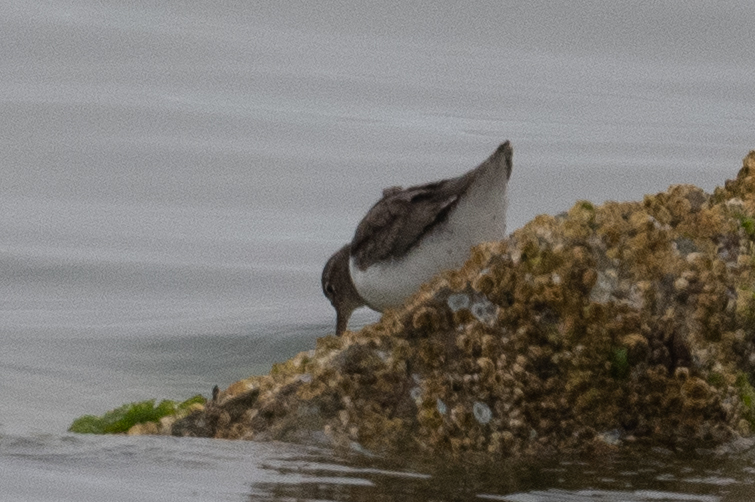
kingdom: Animalia
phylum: Chordata
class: Aves
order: Charadriiformes
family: Scolopacidae
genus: Actitis
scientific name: Actitis macularius
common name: Spotted sandpiper
